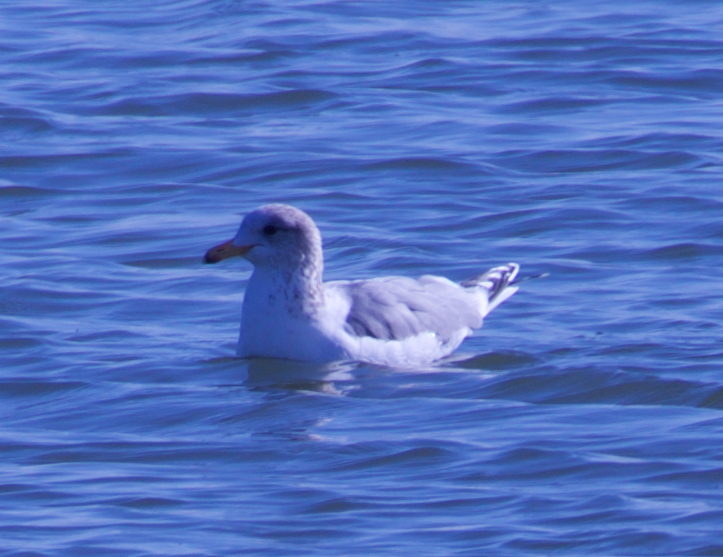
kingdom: Animalia
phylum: Chordata
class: Aves
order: Charadriiformes
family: Laridae
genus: Larus
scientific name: Larus californicus
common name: California gull
